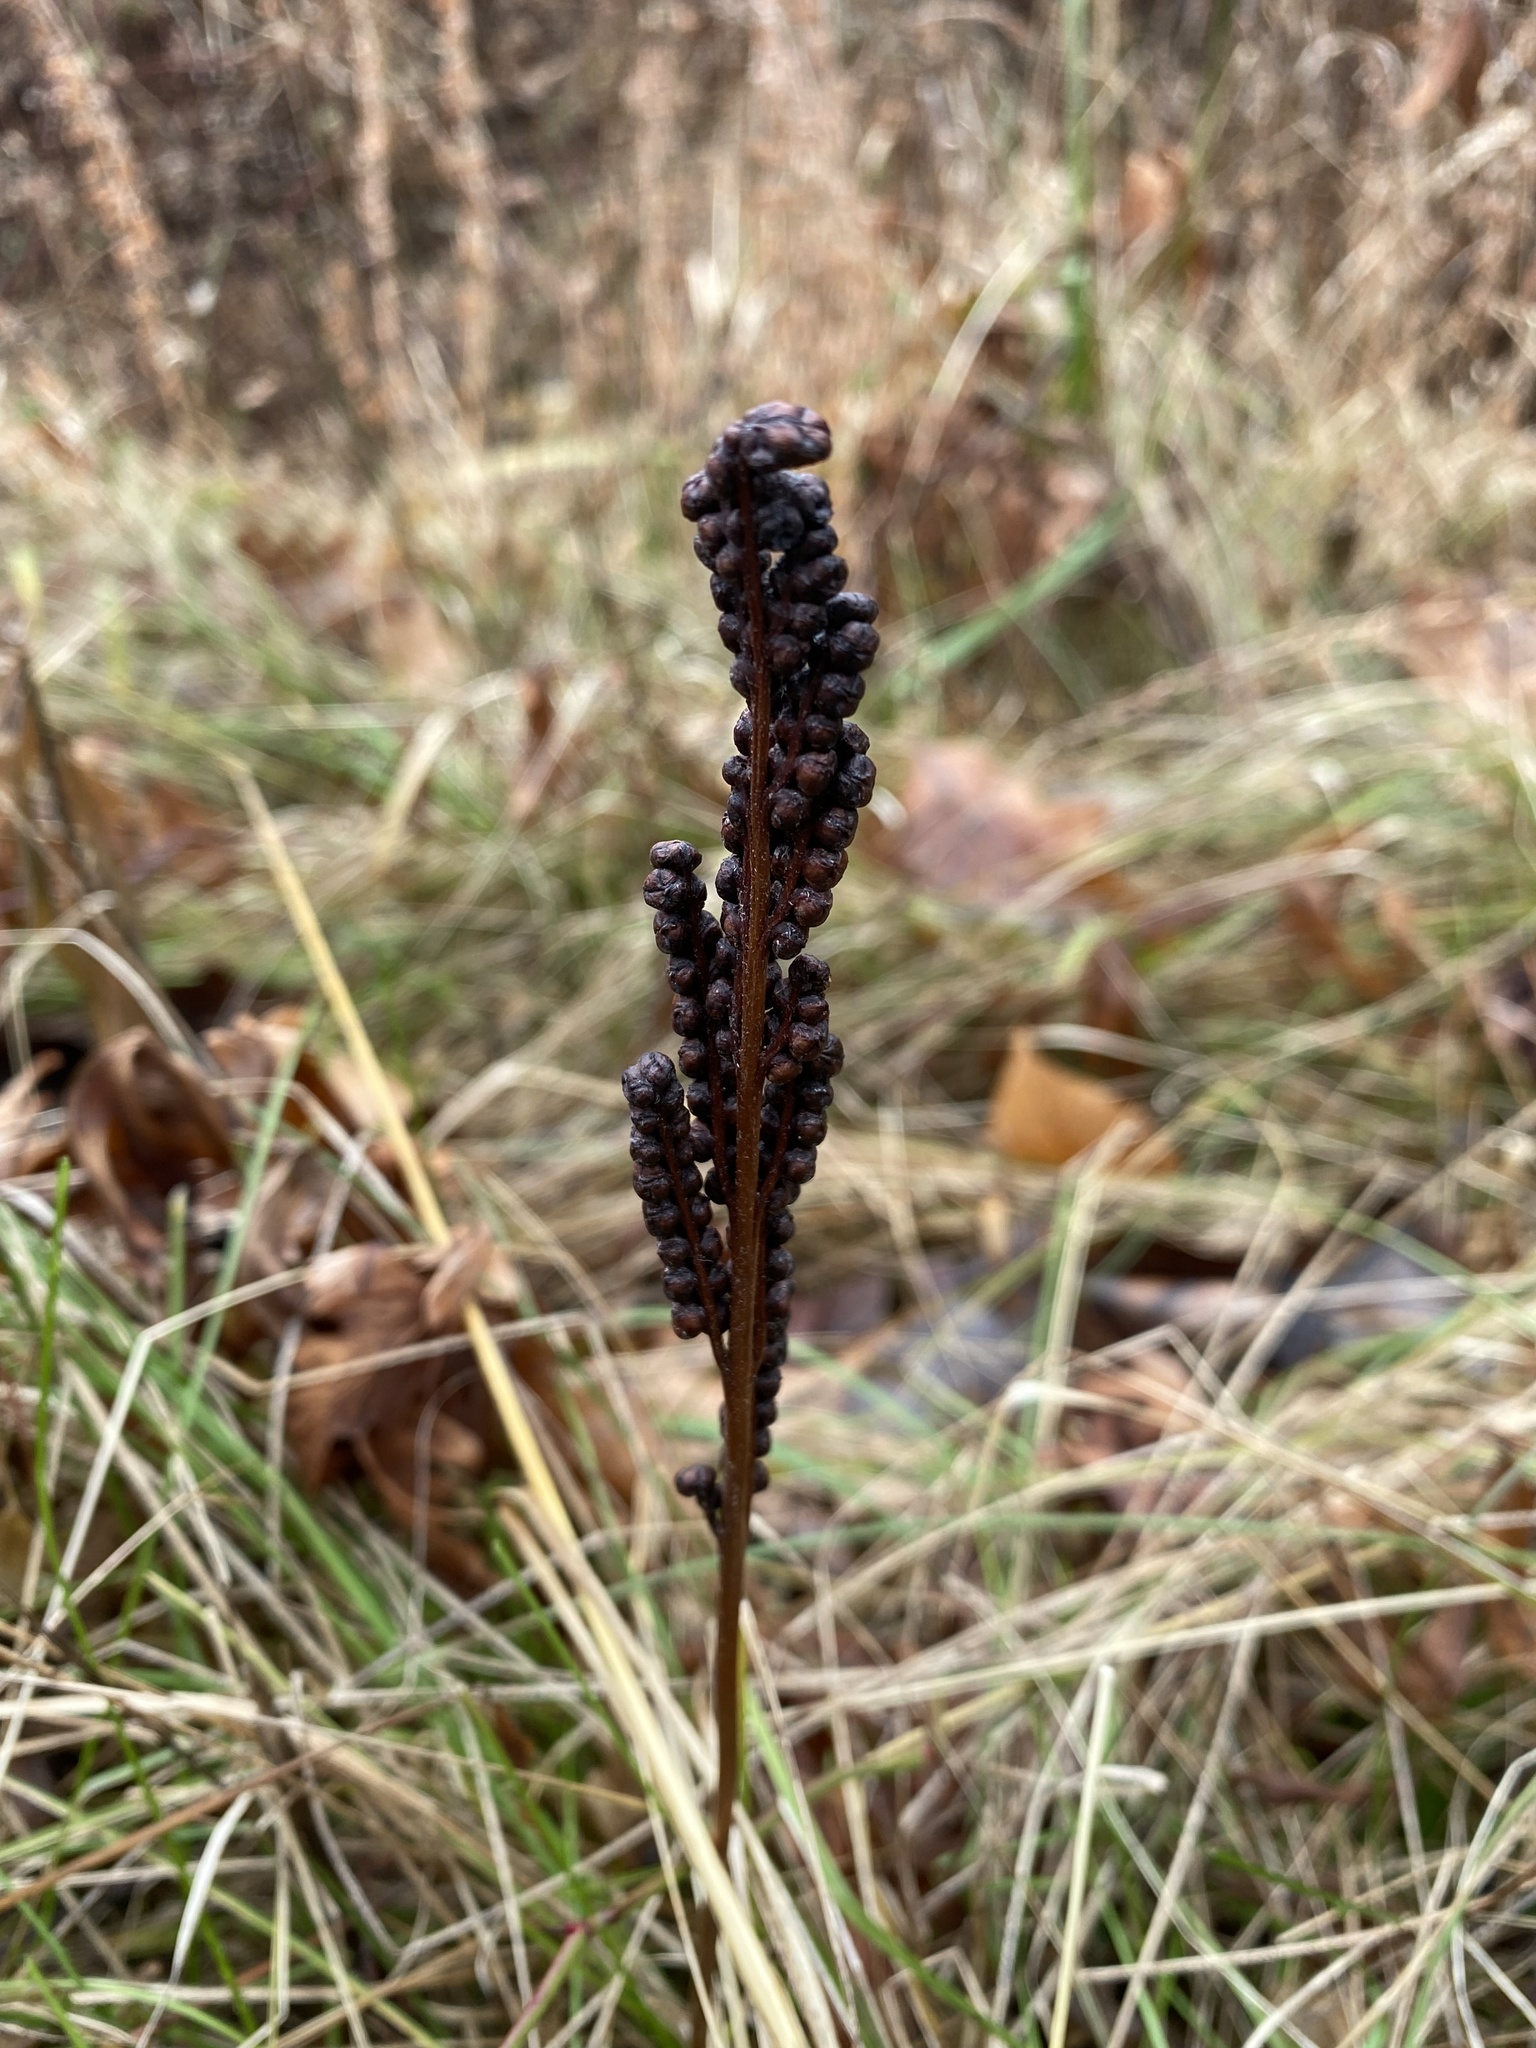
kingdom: Plantae
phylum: Tracheophyta
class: Polypodiopsida
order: Polypodiales
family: Onocleaceae
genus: Onoclea
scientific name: Onoclea sensibilis
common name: Sensitive fern
